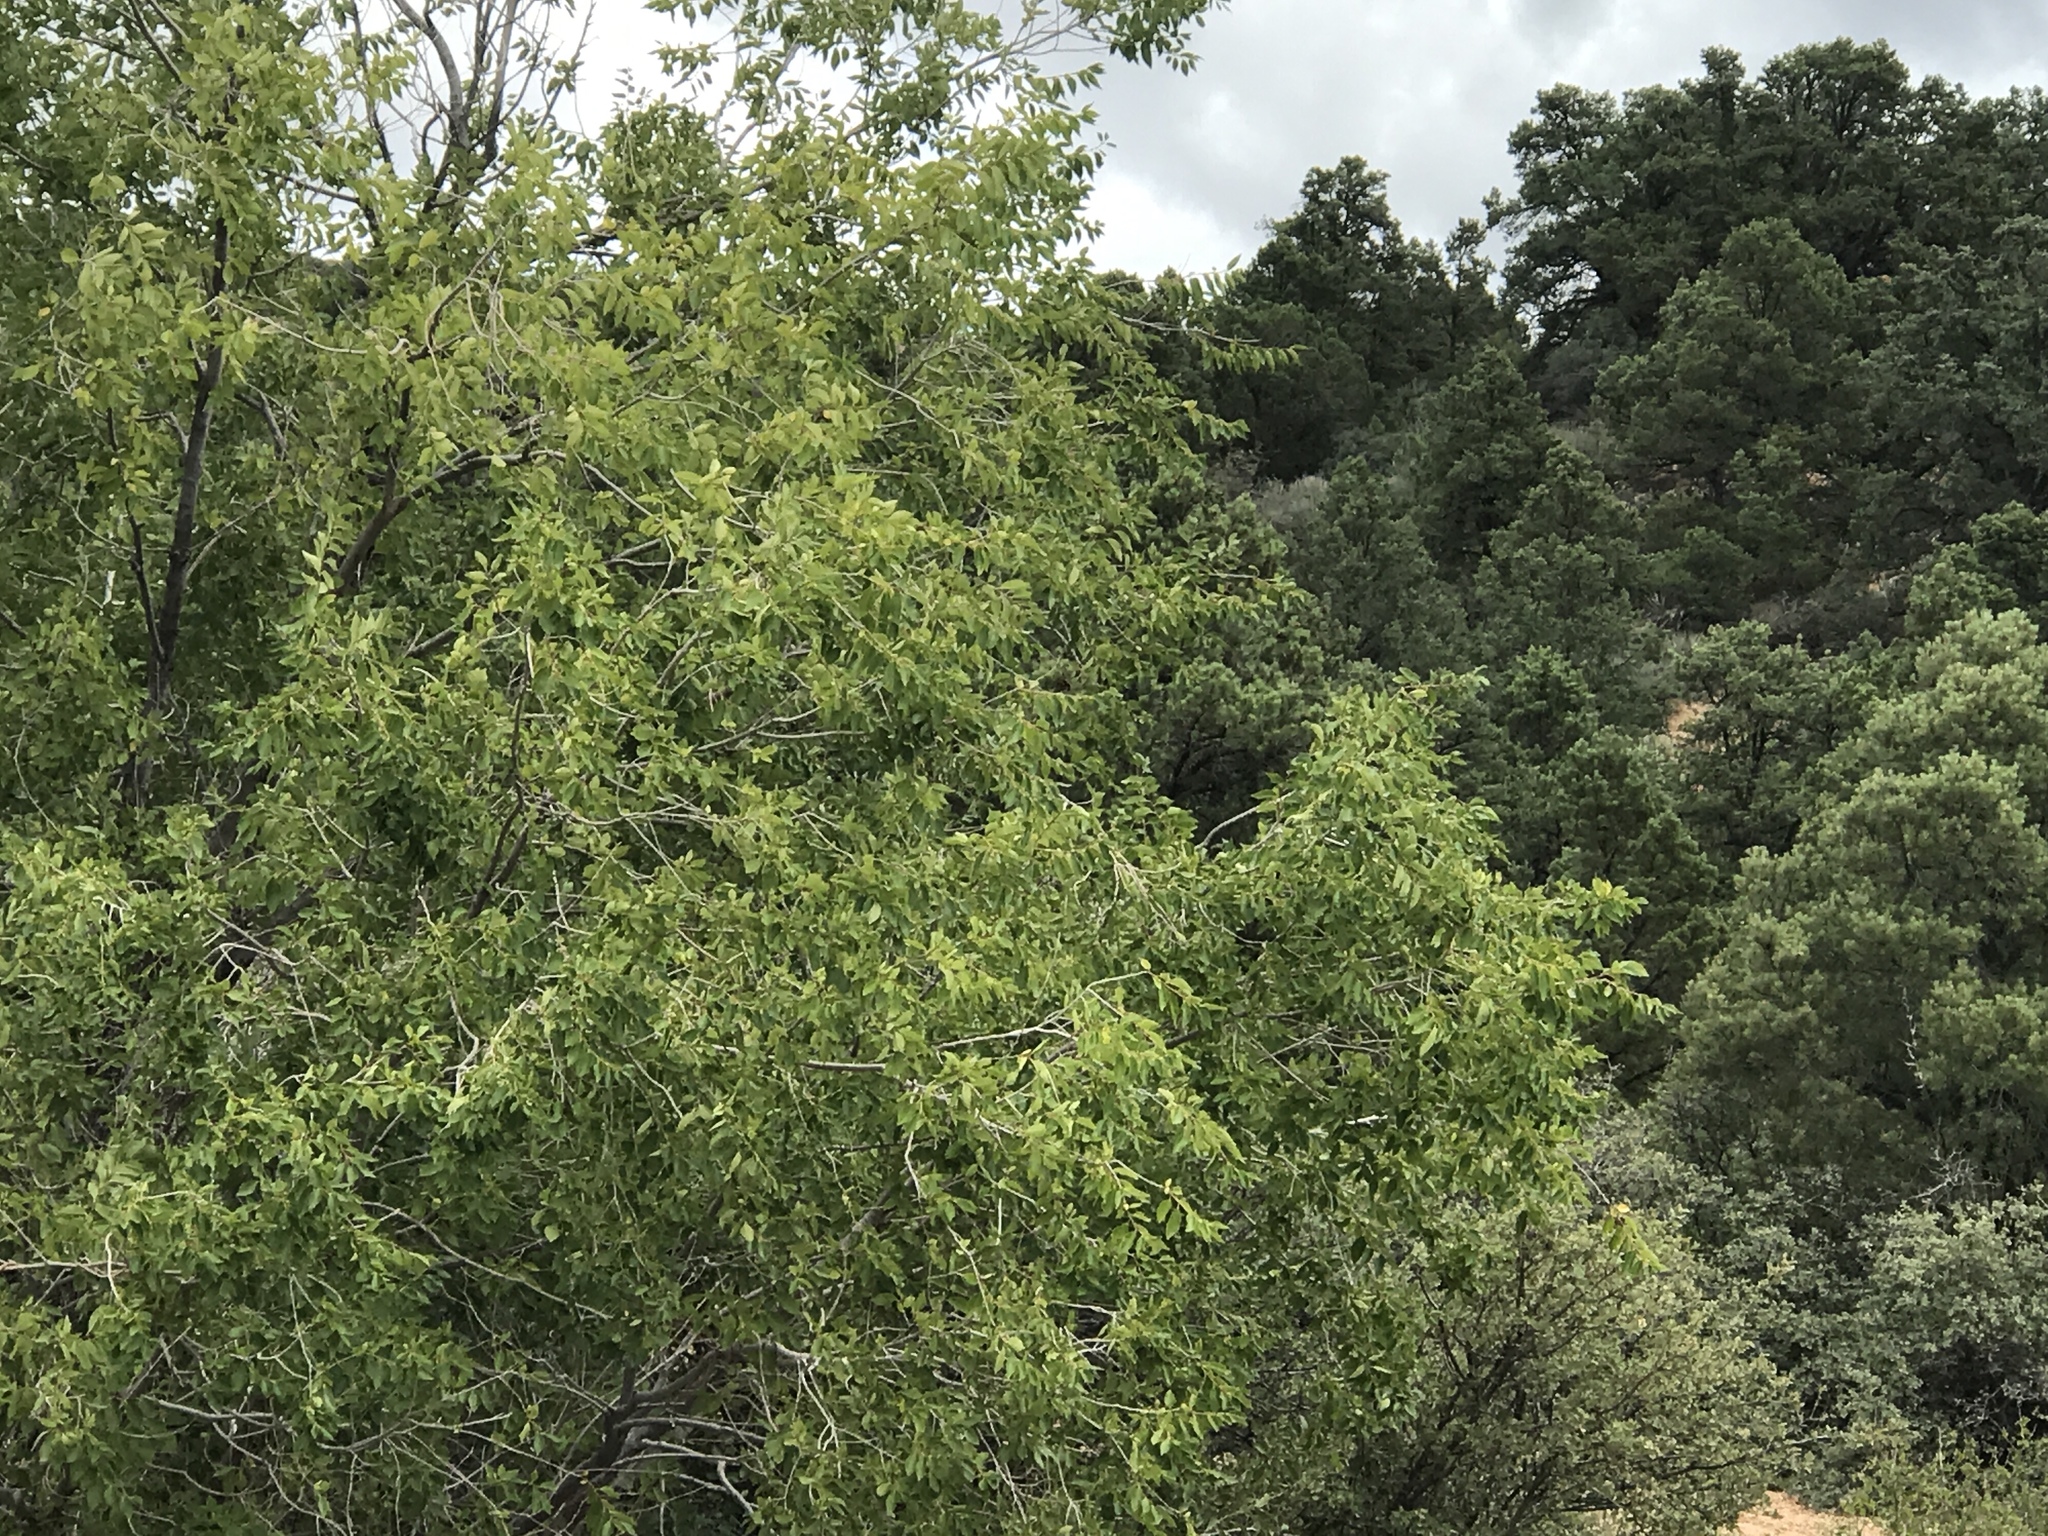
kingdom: Plantae
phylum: Tracheophyta
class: Magnoliopsida
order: Fagales
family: Juglandaceae
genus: Juglans
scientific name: Juglans major
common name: Arizona walnut
